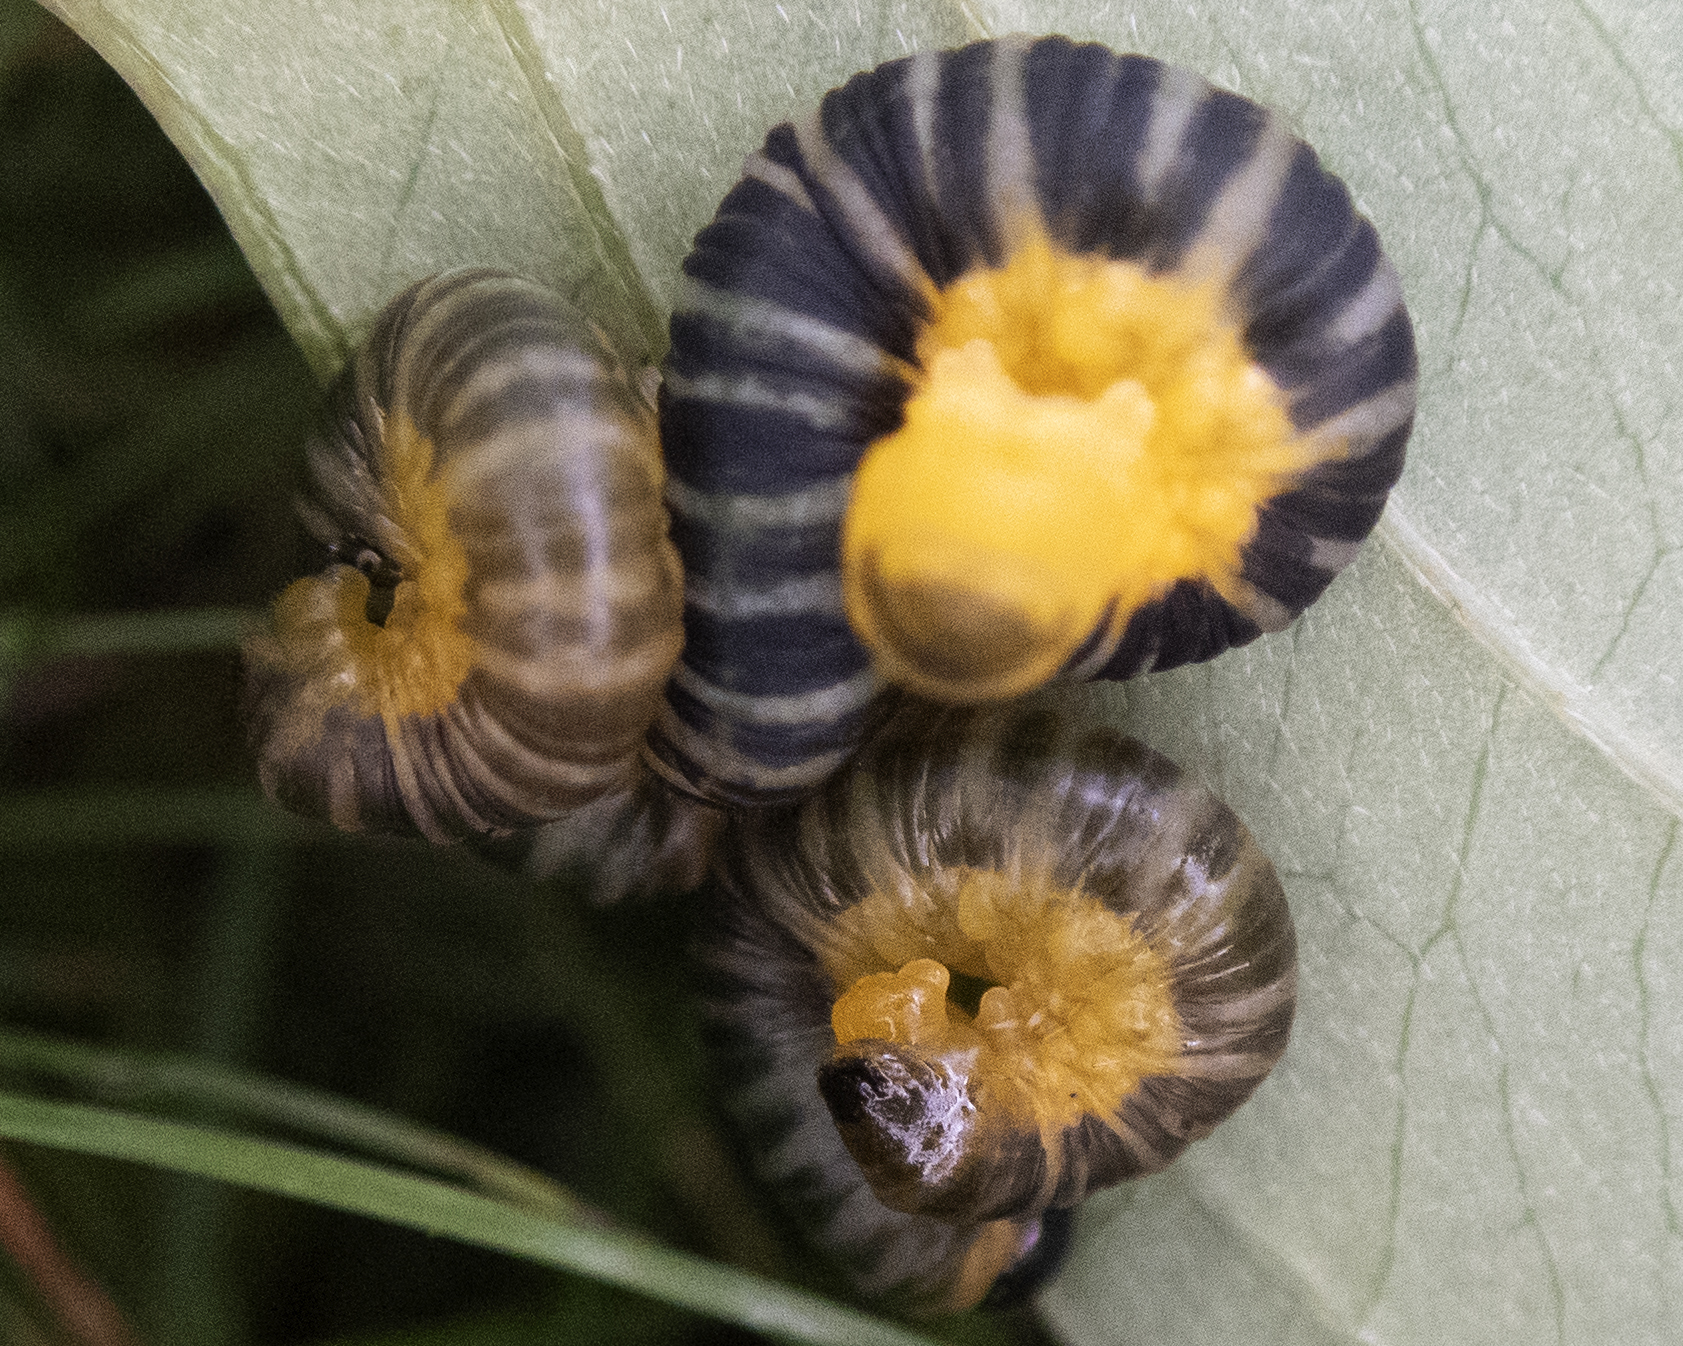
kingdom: Animalia
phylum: Arthropoda
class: Insecta
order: Hymenoptera
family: Tenthredinidae
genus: Macremphytus
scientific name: Macremphytus
